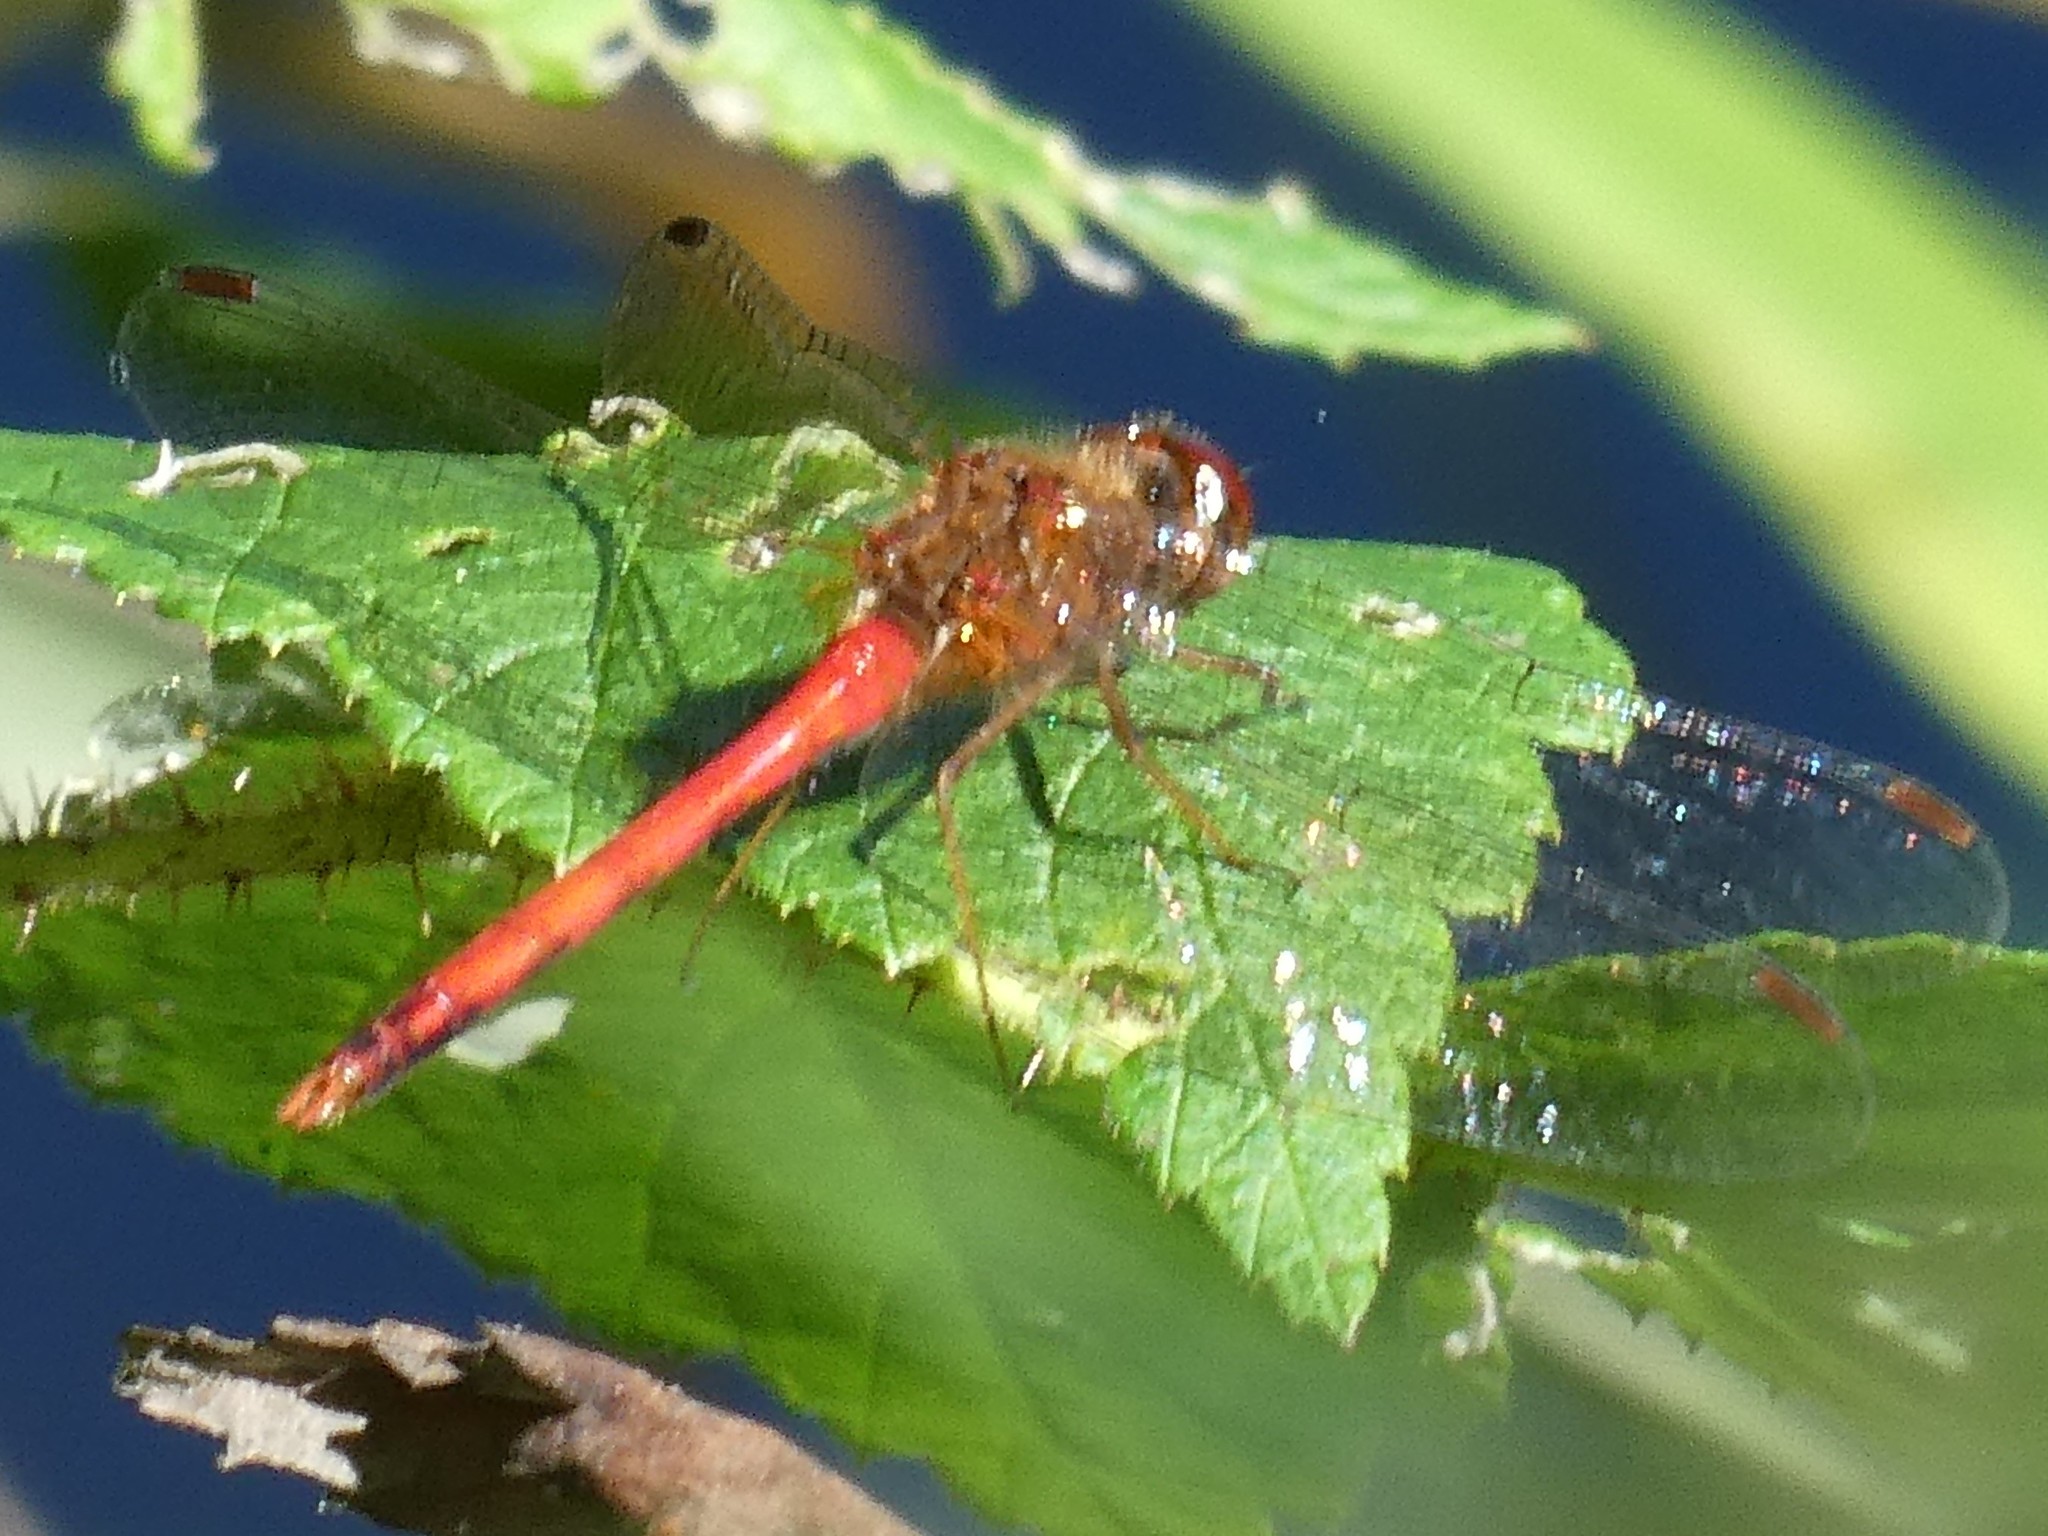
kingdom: Animalia
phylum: Arthropoda
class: Insecta
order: Odonata
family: Libellulidae
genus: Sympetrum
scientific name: Sympetrum vicinum
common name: Autumn meadowhawk
